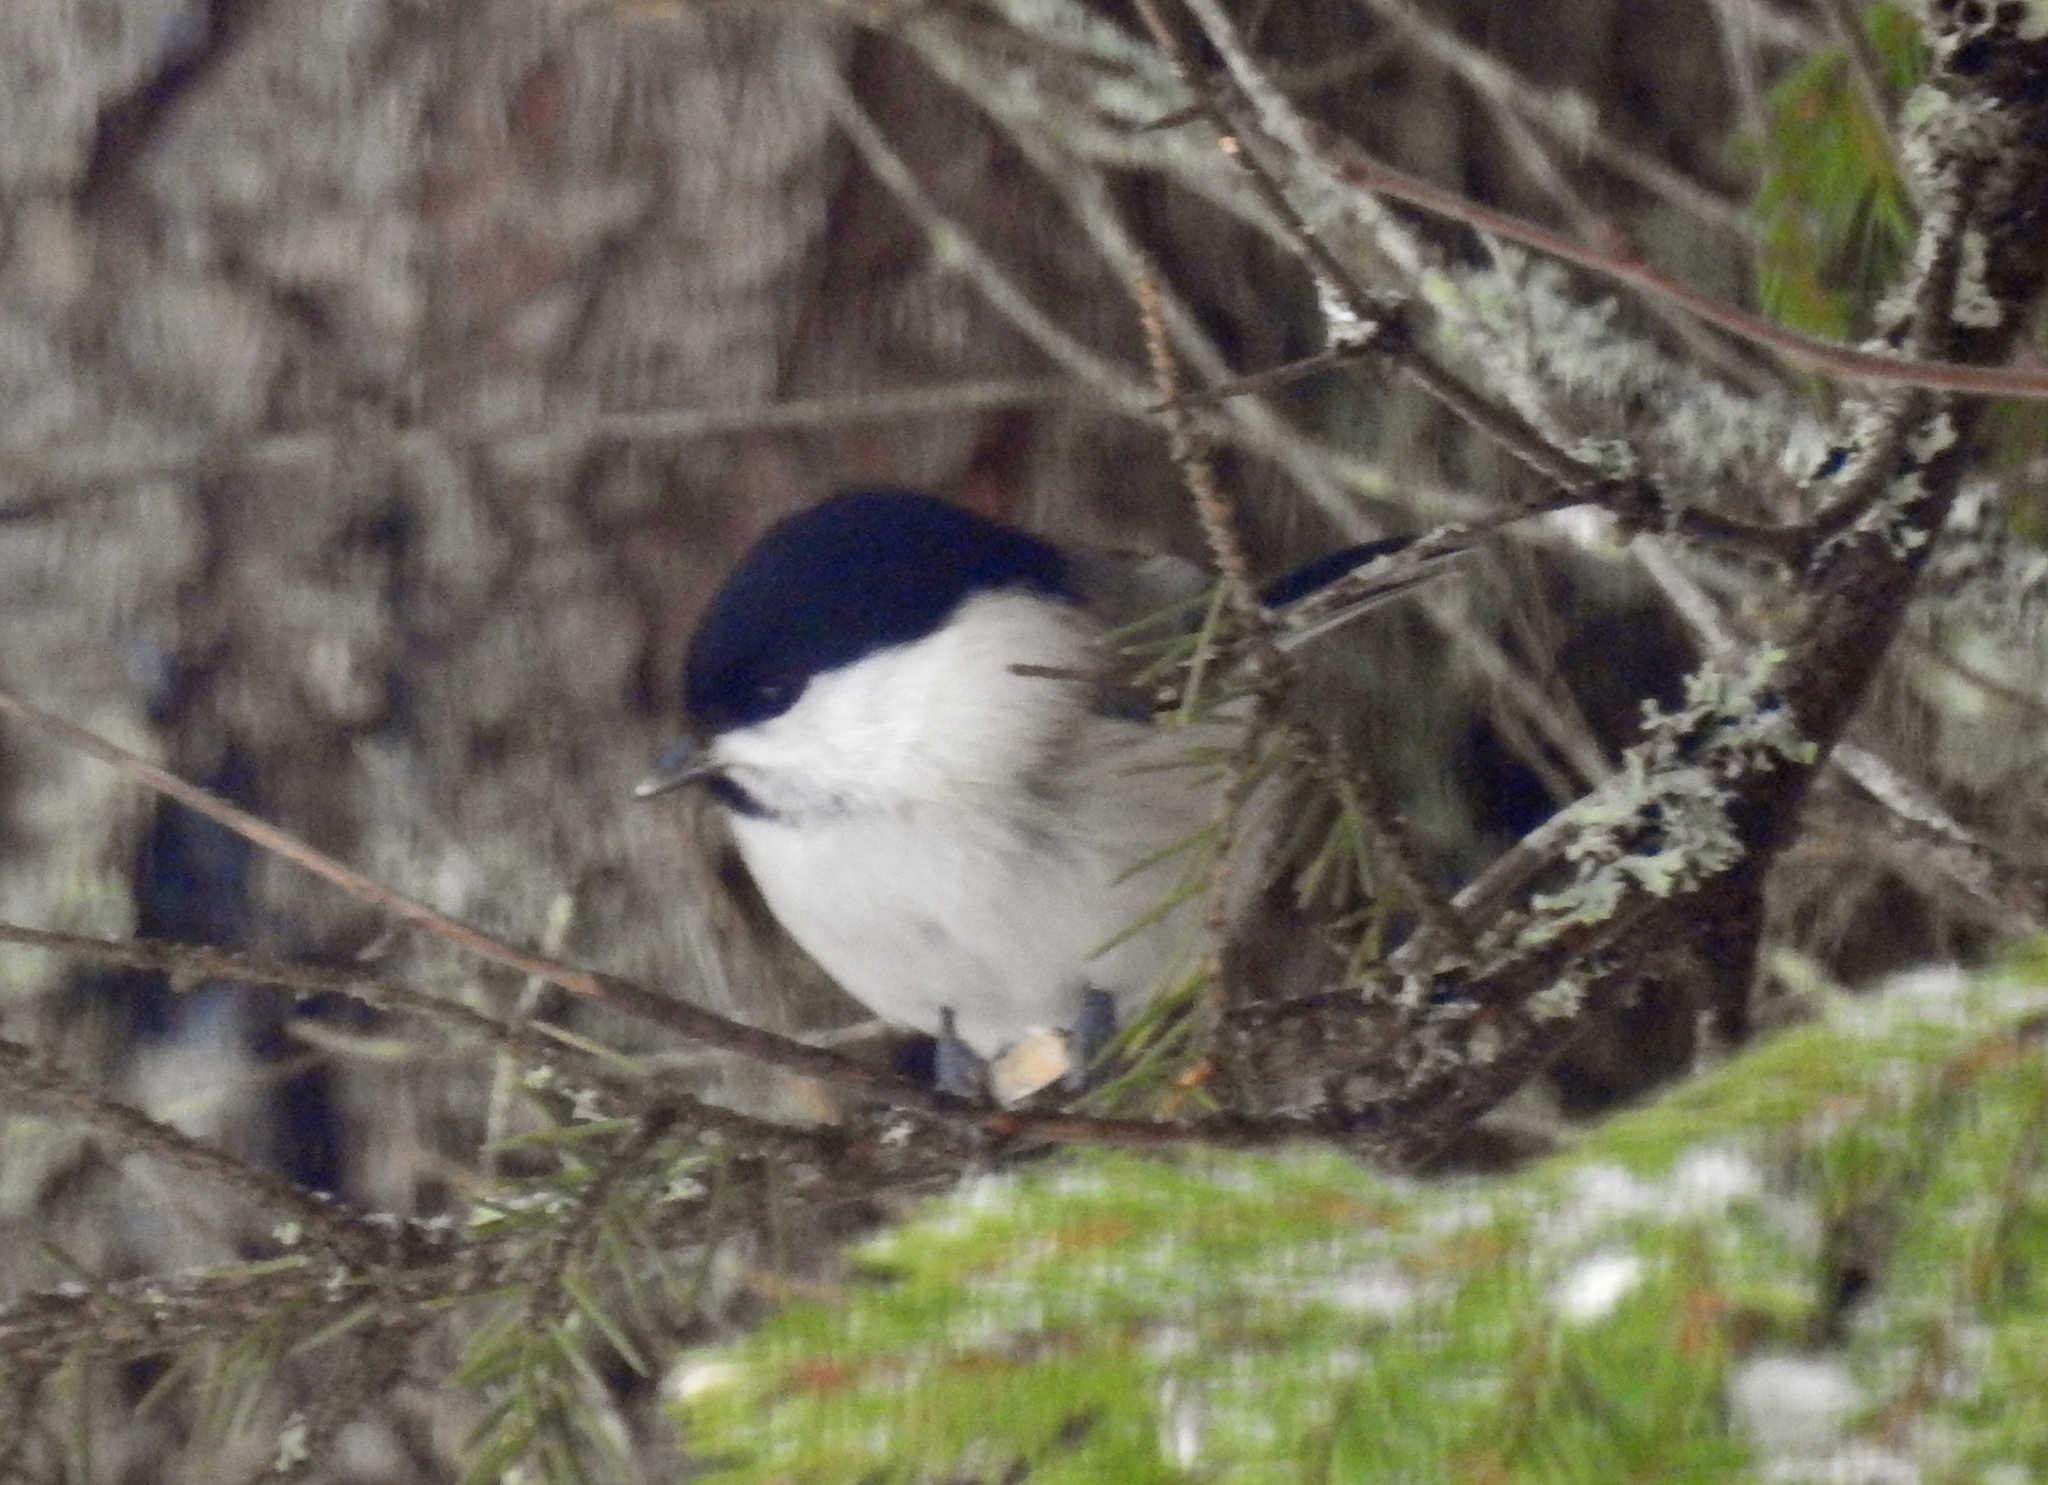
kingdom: Animalia
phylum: Chordata
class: Aves
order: Passeriformes
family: Paridae
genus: Poecile
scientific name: Poecile montanus
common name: Willow tit
